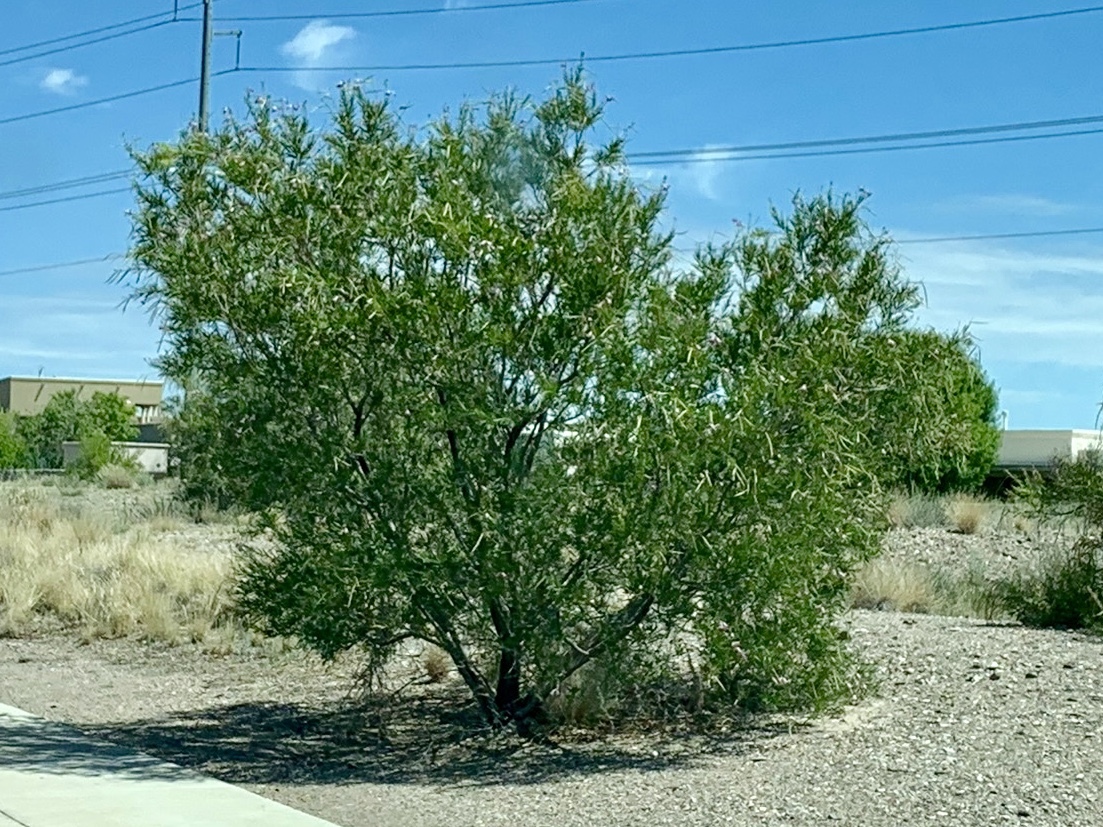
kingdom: Plantae
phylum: Tracheophyta
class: Magnoliopsida
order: Lamiales
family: Bignoniaceae
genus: Chilopsis
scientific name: Chilopsis linearis
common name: Desert-willow
